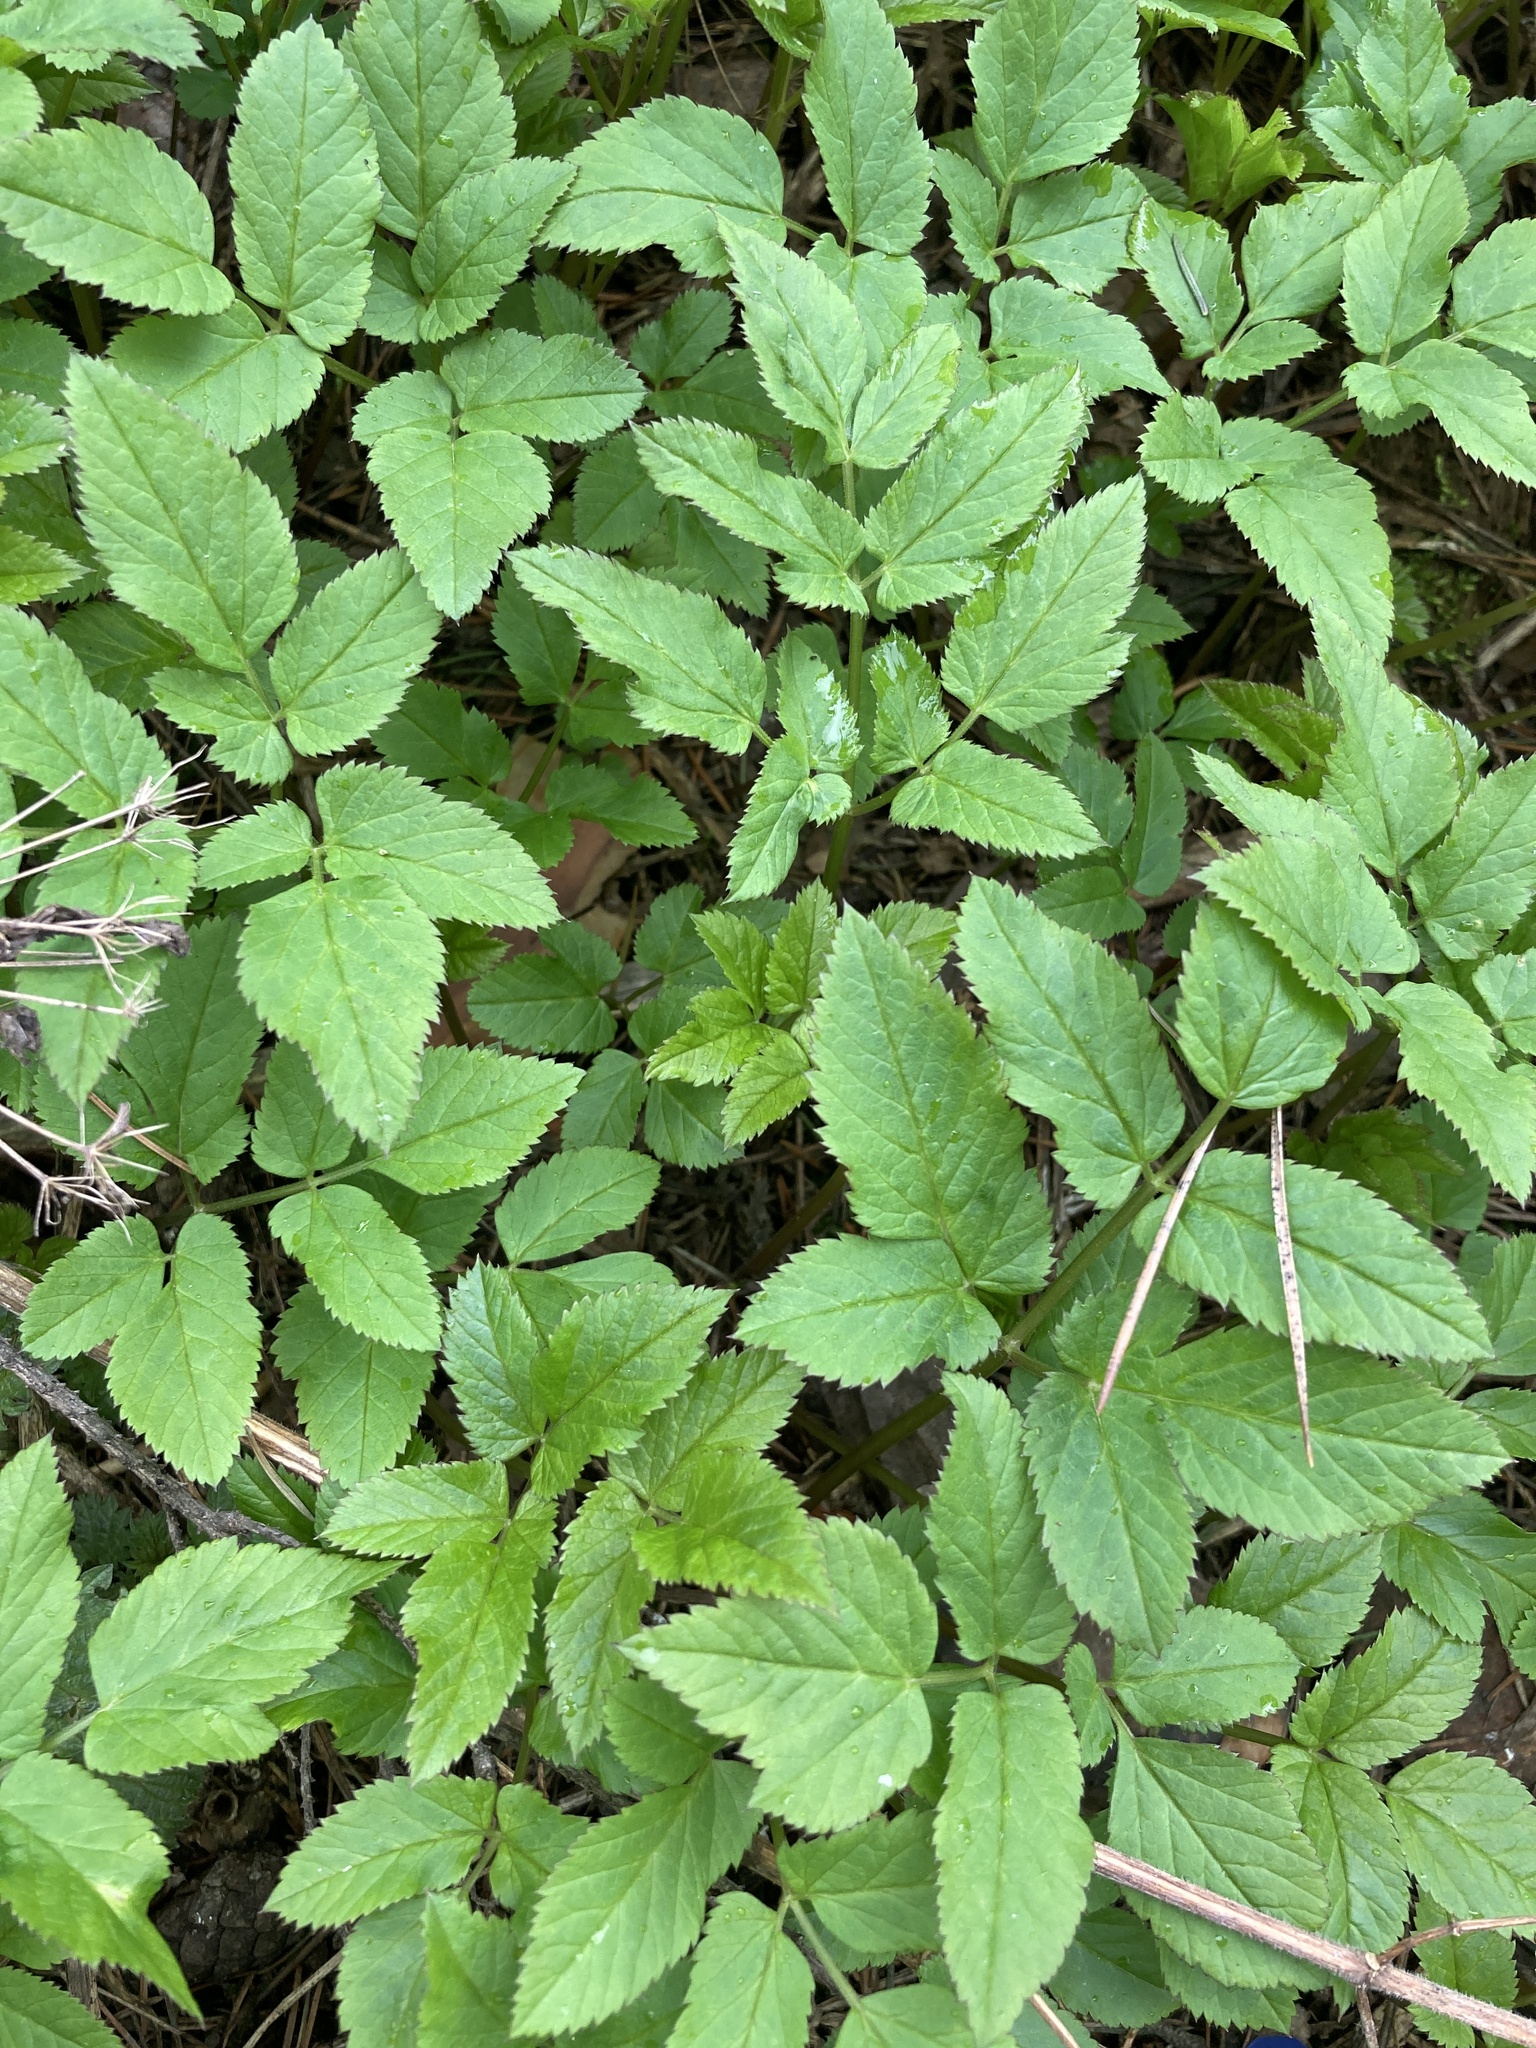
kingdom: Plantae
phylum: Tracheophyta
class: Magnoliopsida
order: Apiales
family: Apiaceae
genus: Aegopodium
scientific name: Aegopodium podagraria
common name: Ground-elder
